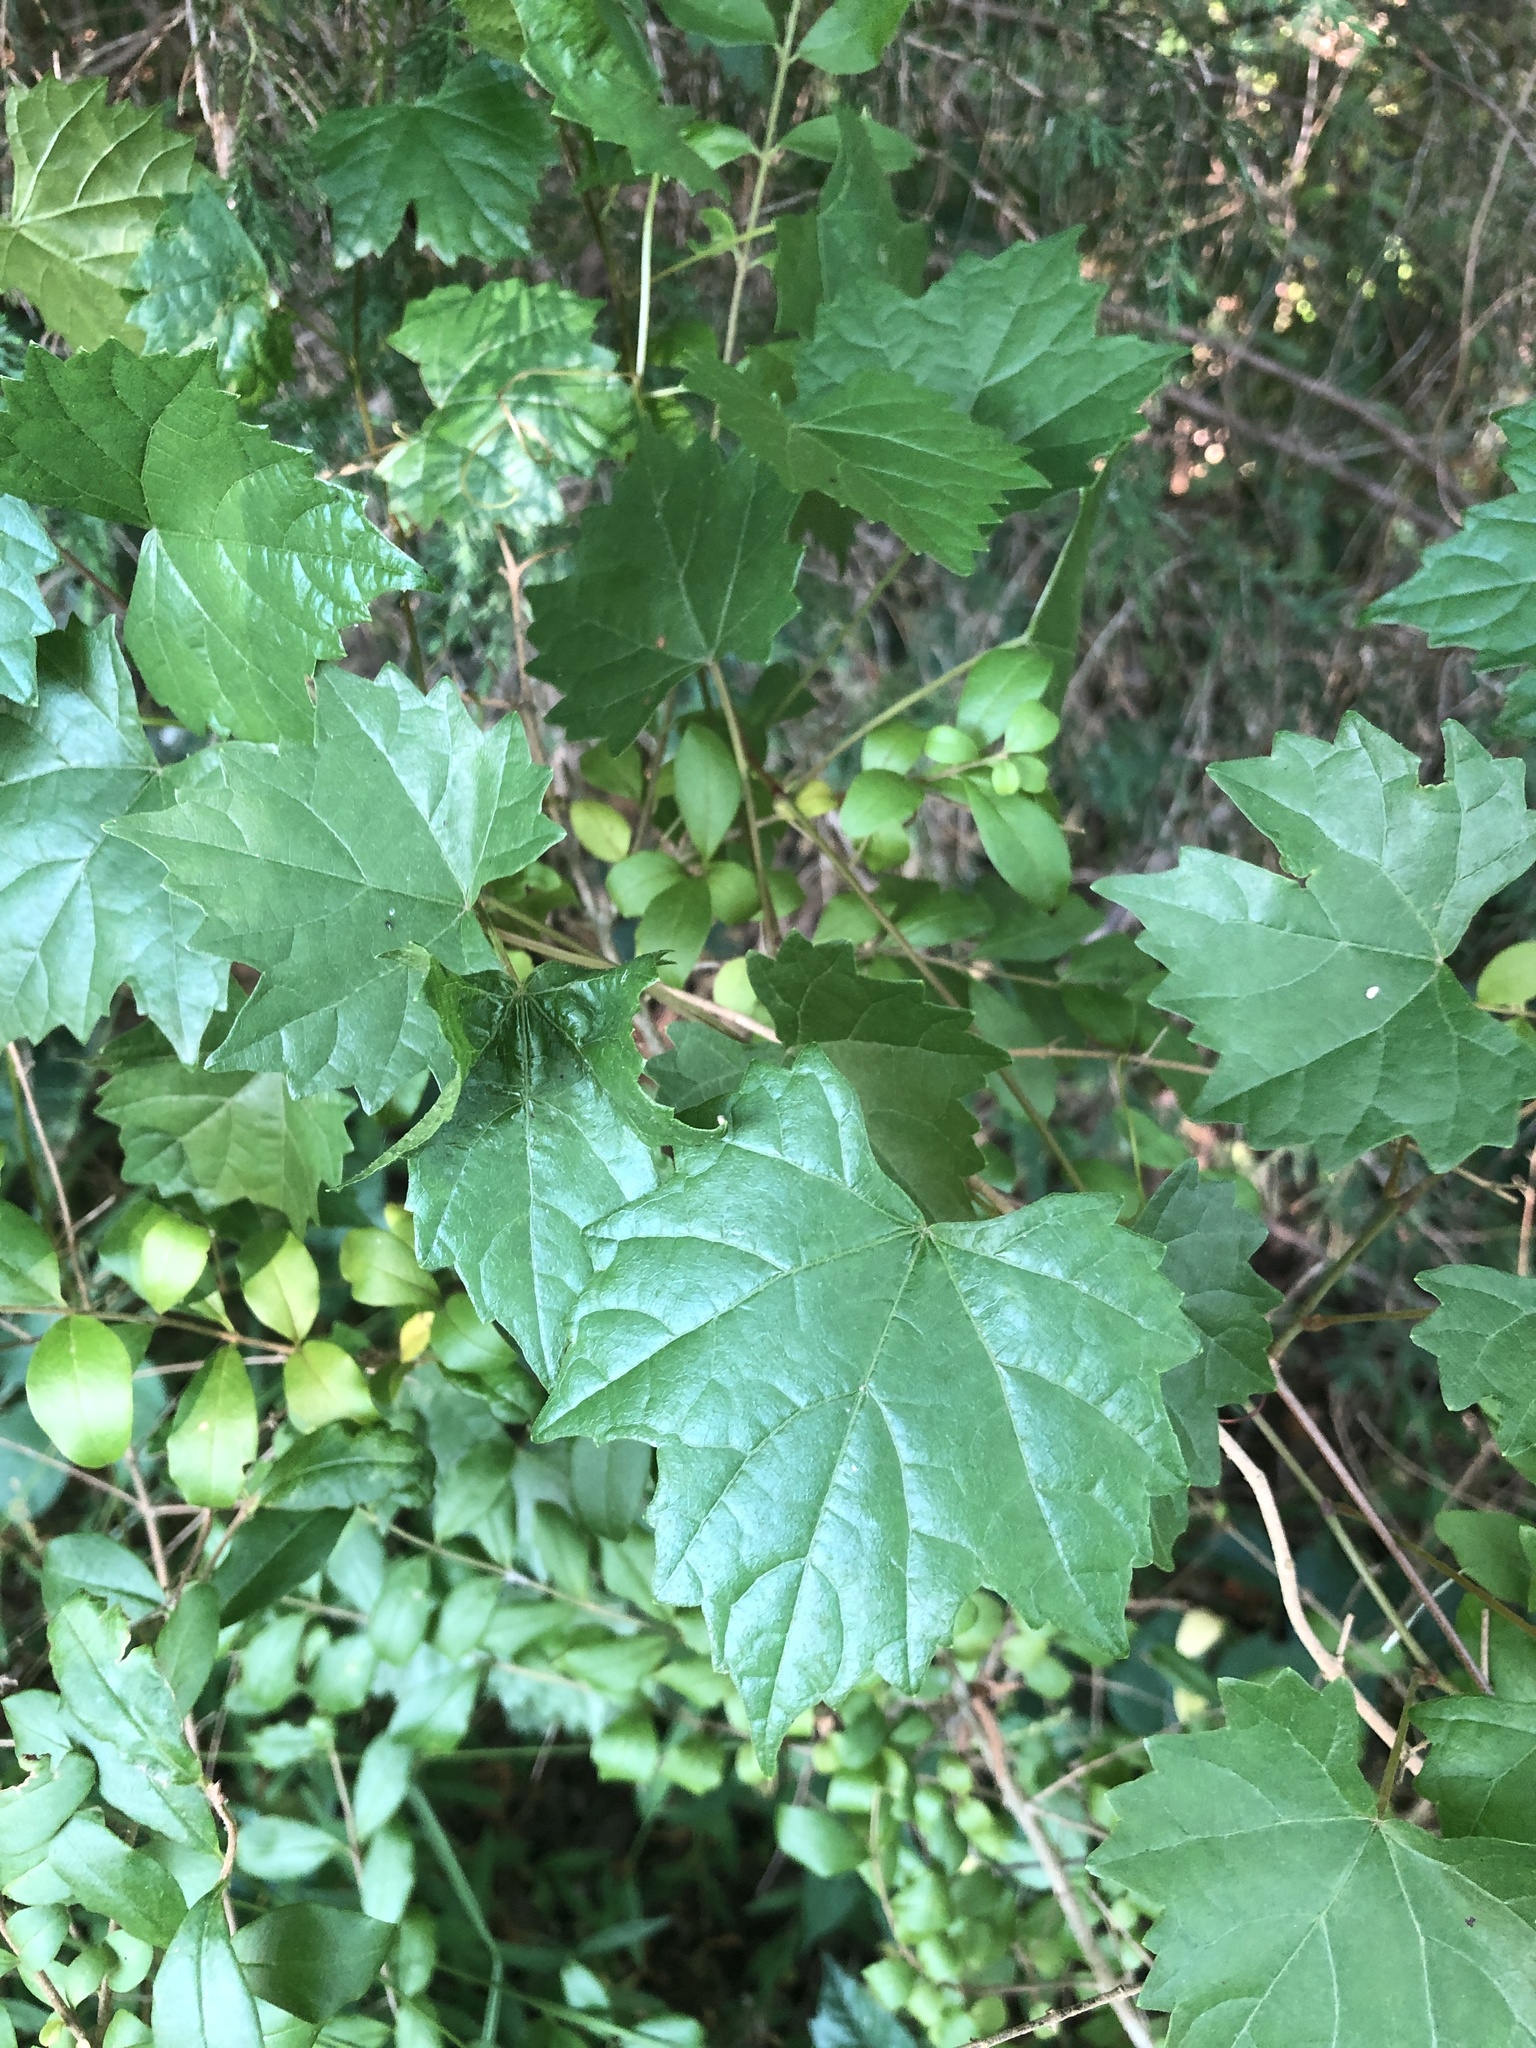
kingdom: Plantae
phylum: Tracheophyta
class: Magnoliopsida
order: Vitales
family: Vitaceae
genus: Vitis
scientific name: Vitis rotundifolia
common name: Muscadine grape
